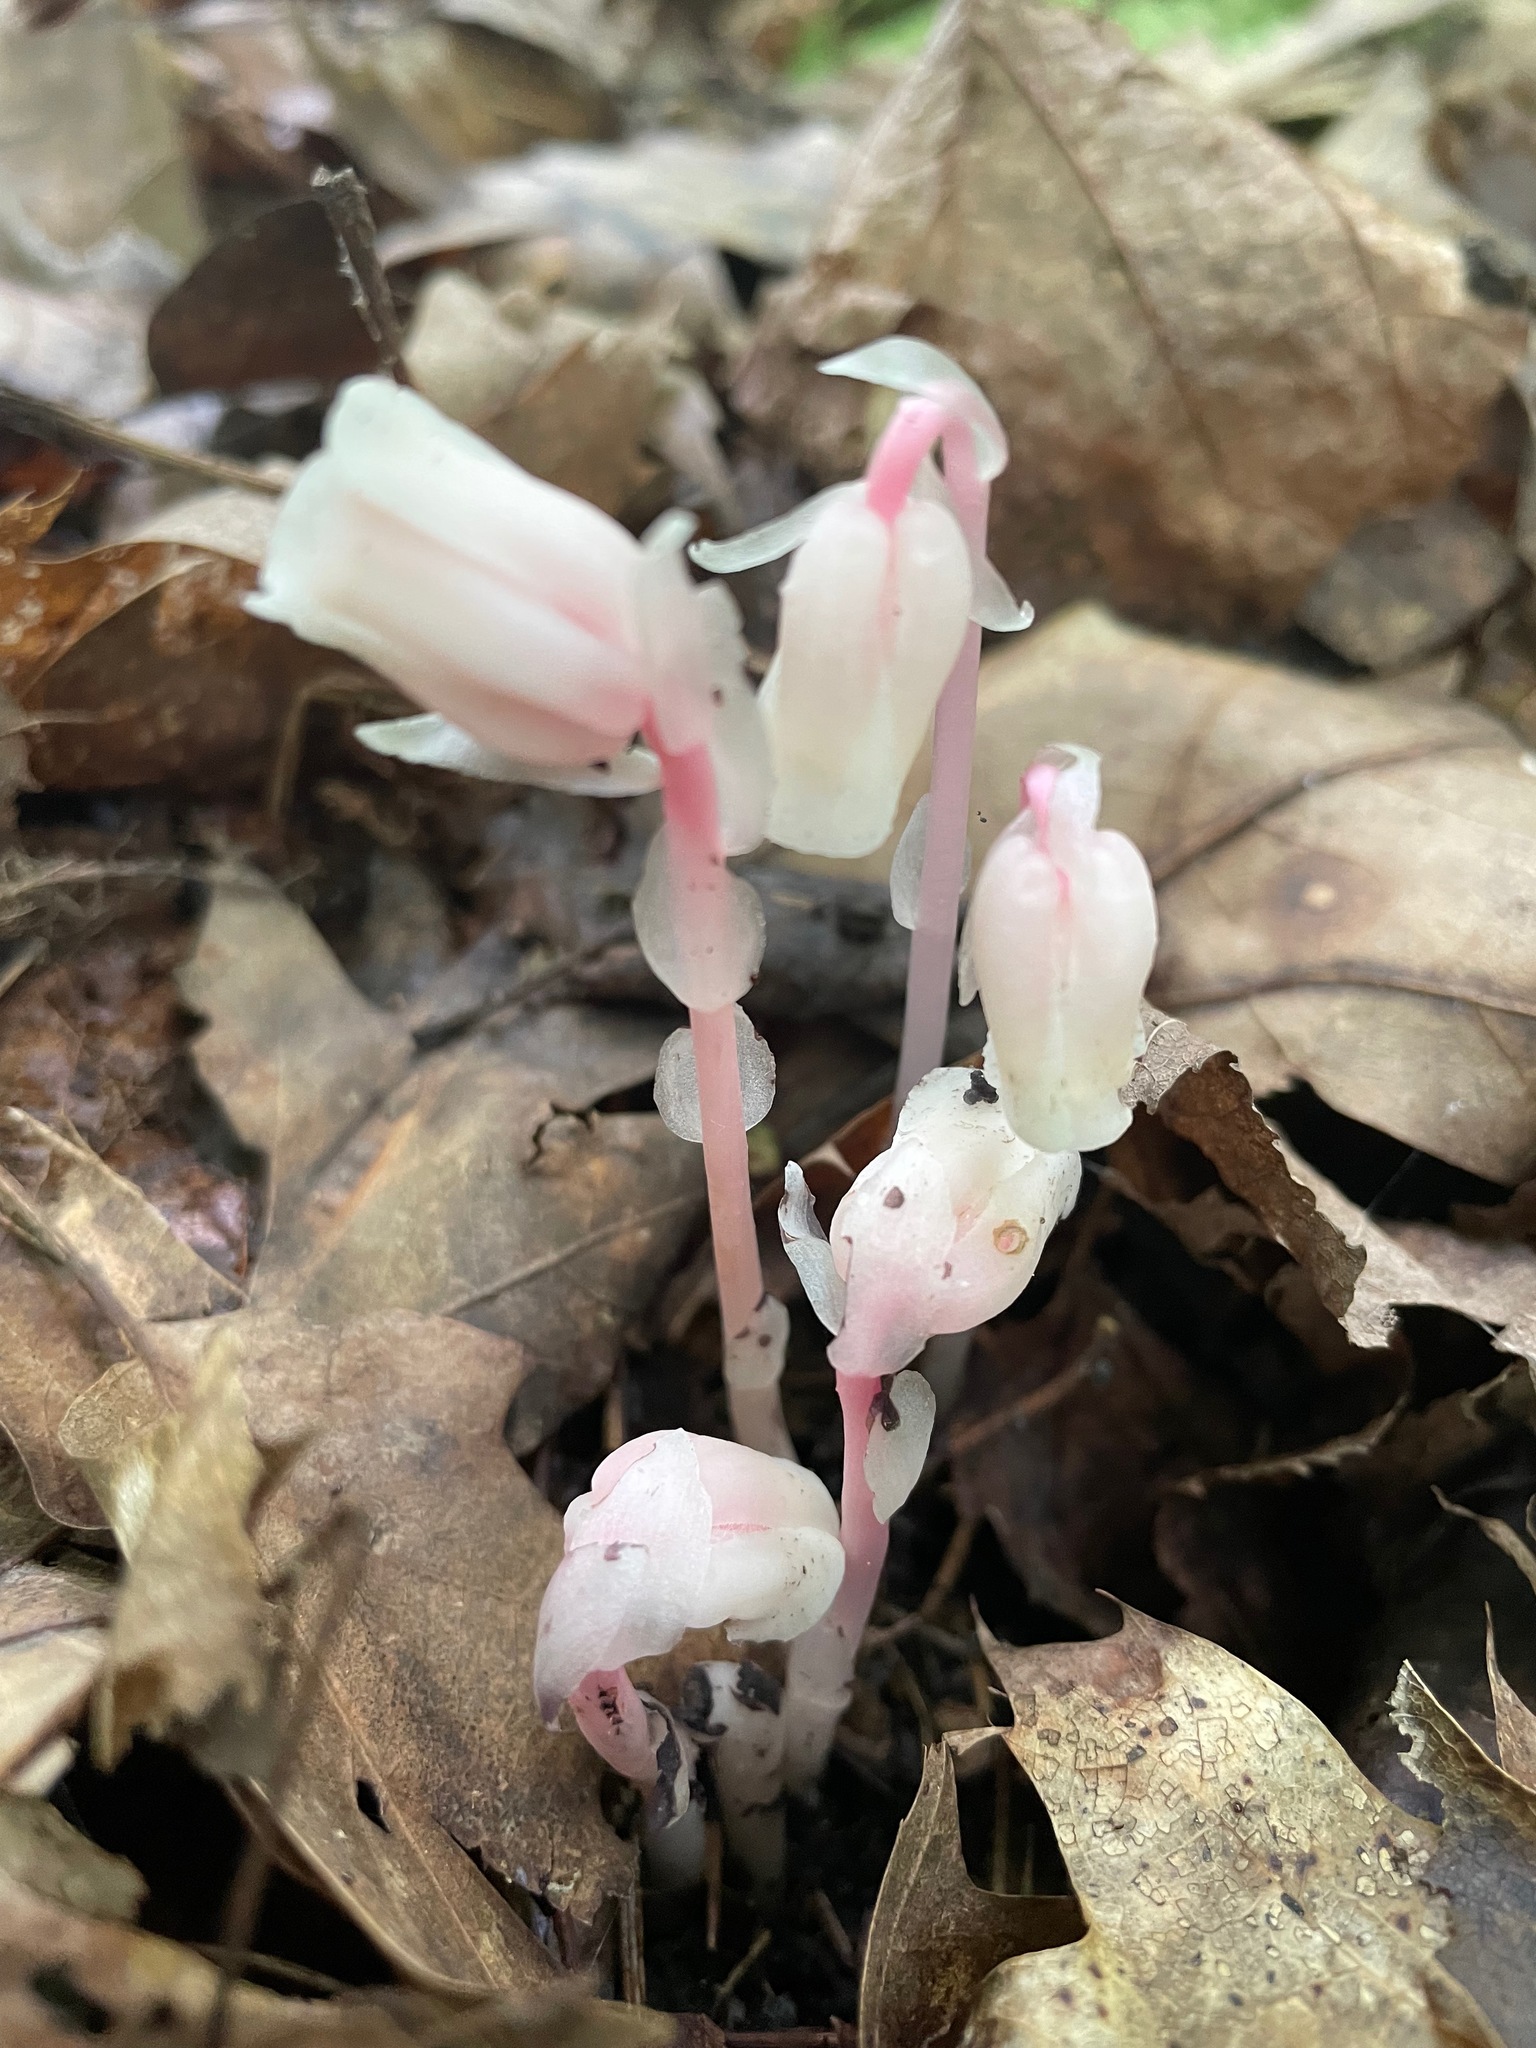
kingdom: Plantae
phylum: Tracheophyta
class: Magnoliopsida
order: Ericales
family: Ericaceae
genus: Monotropa
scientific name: Monotropa uniflora
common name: Convulsion root
